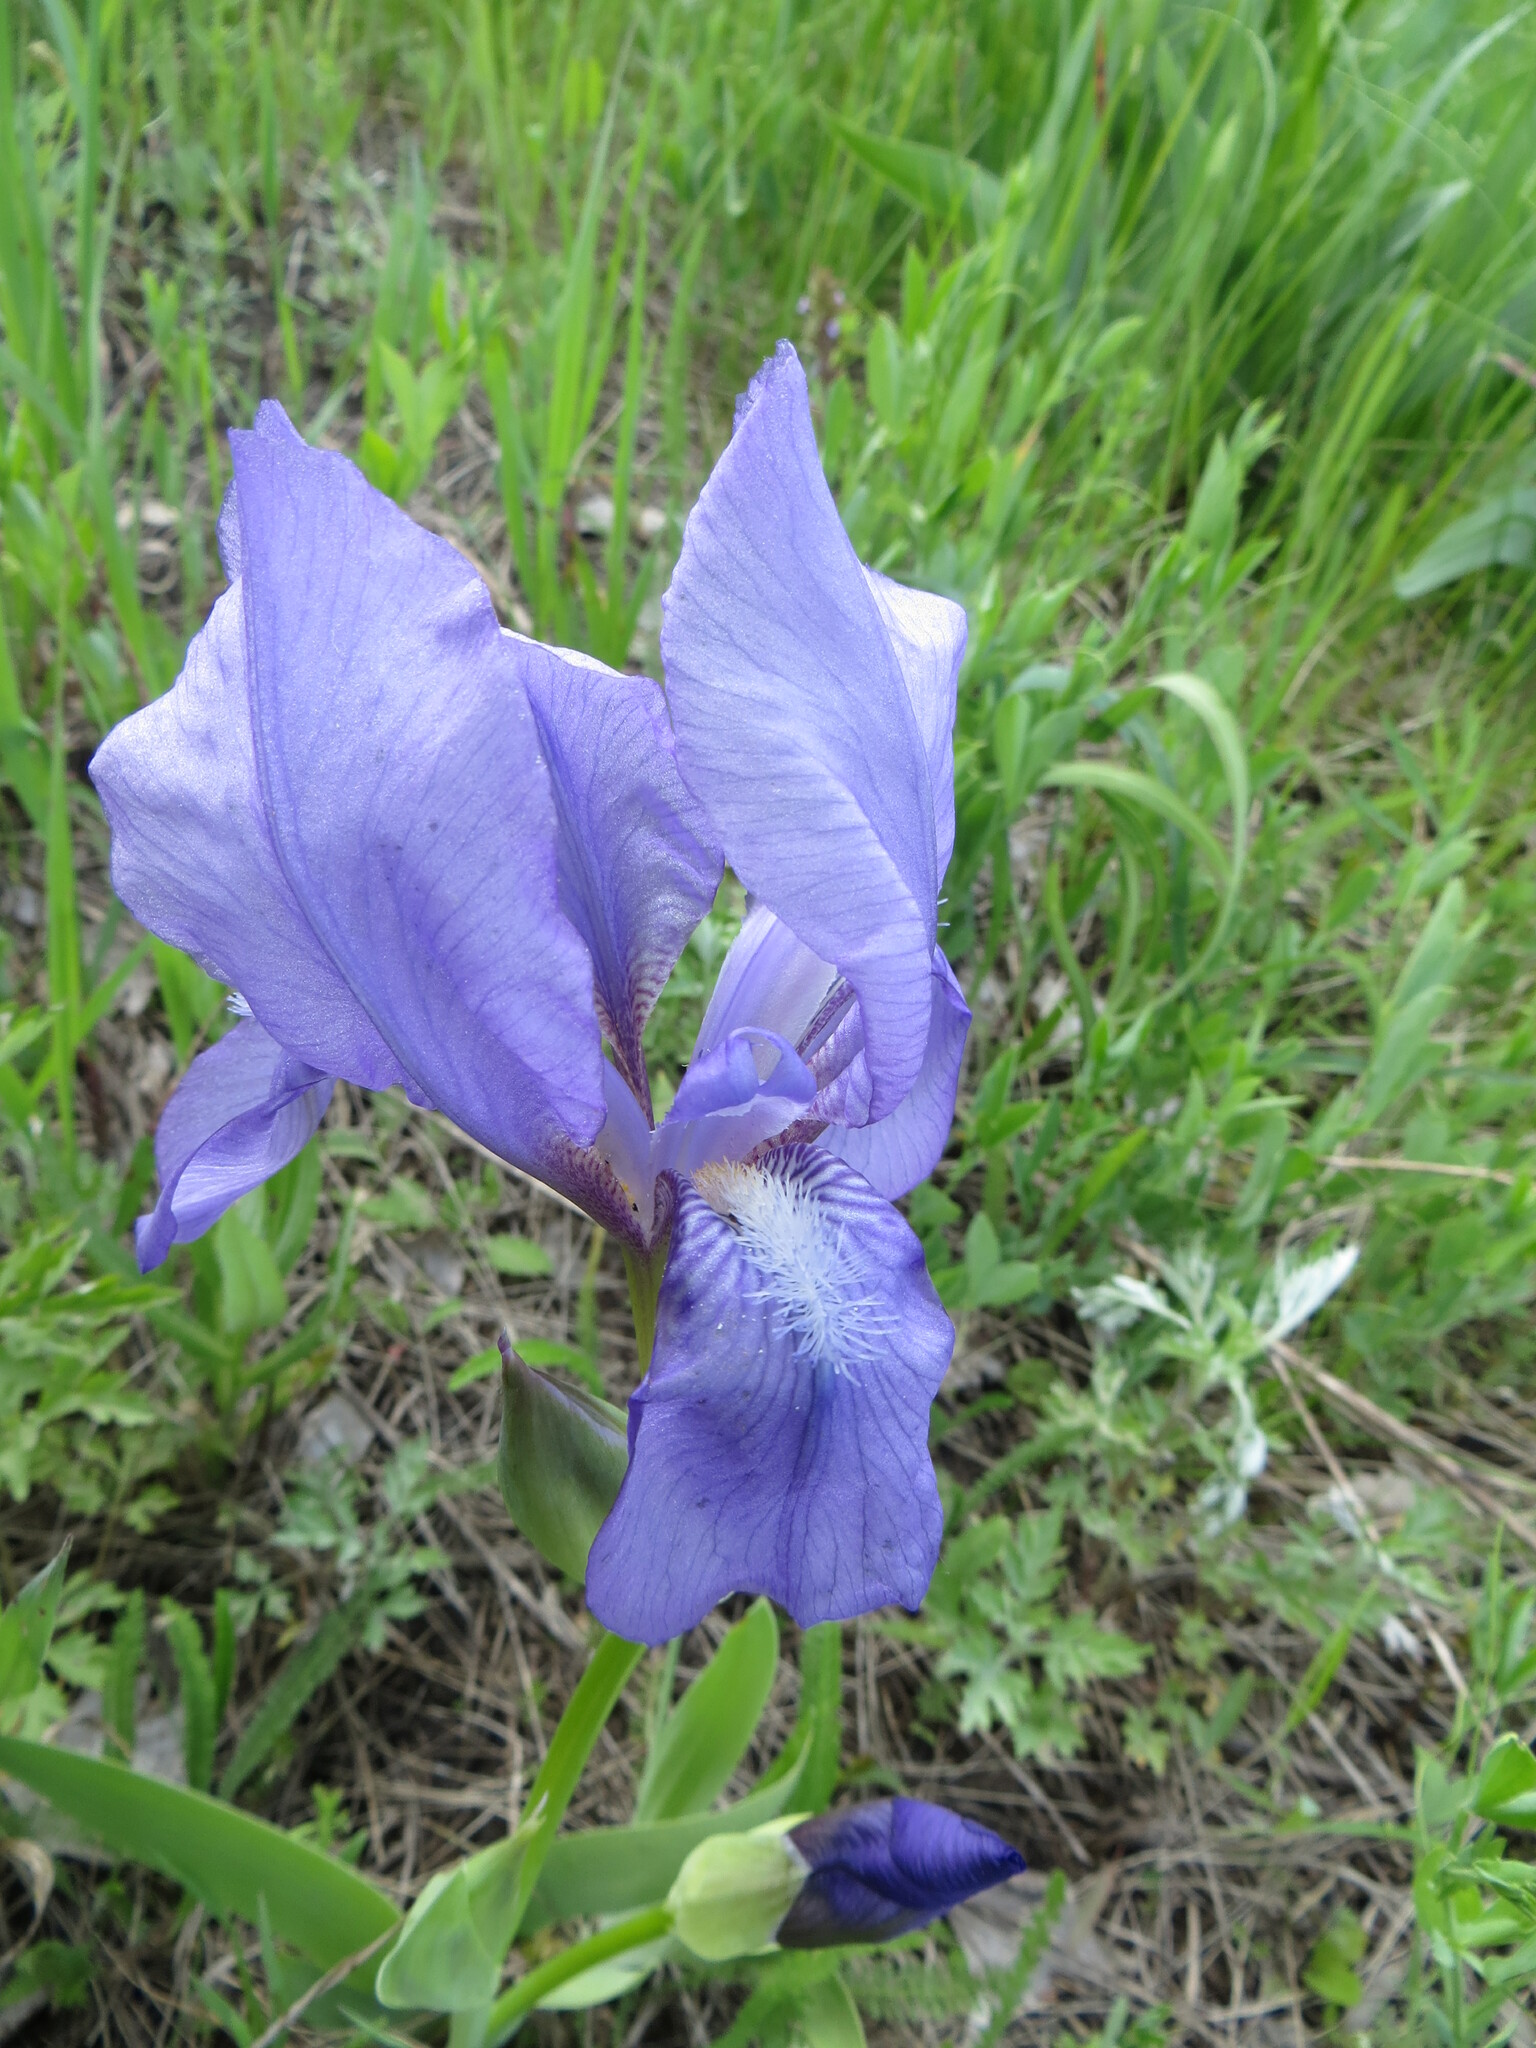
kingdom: Plantae
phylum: Tracheophyta
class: Liliopsida
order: Asparagales
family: Iridaceae
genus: Iris
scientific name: Iris aphylla
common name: Stool iris
